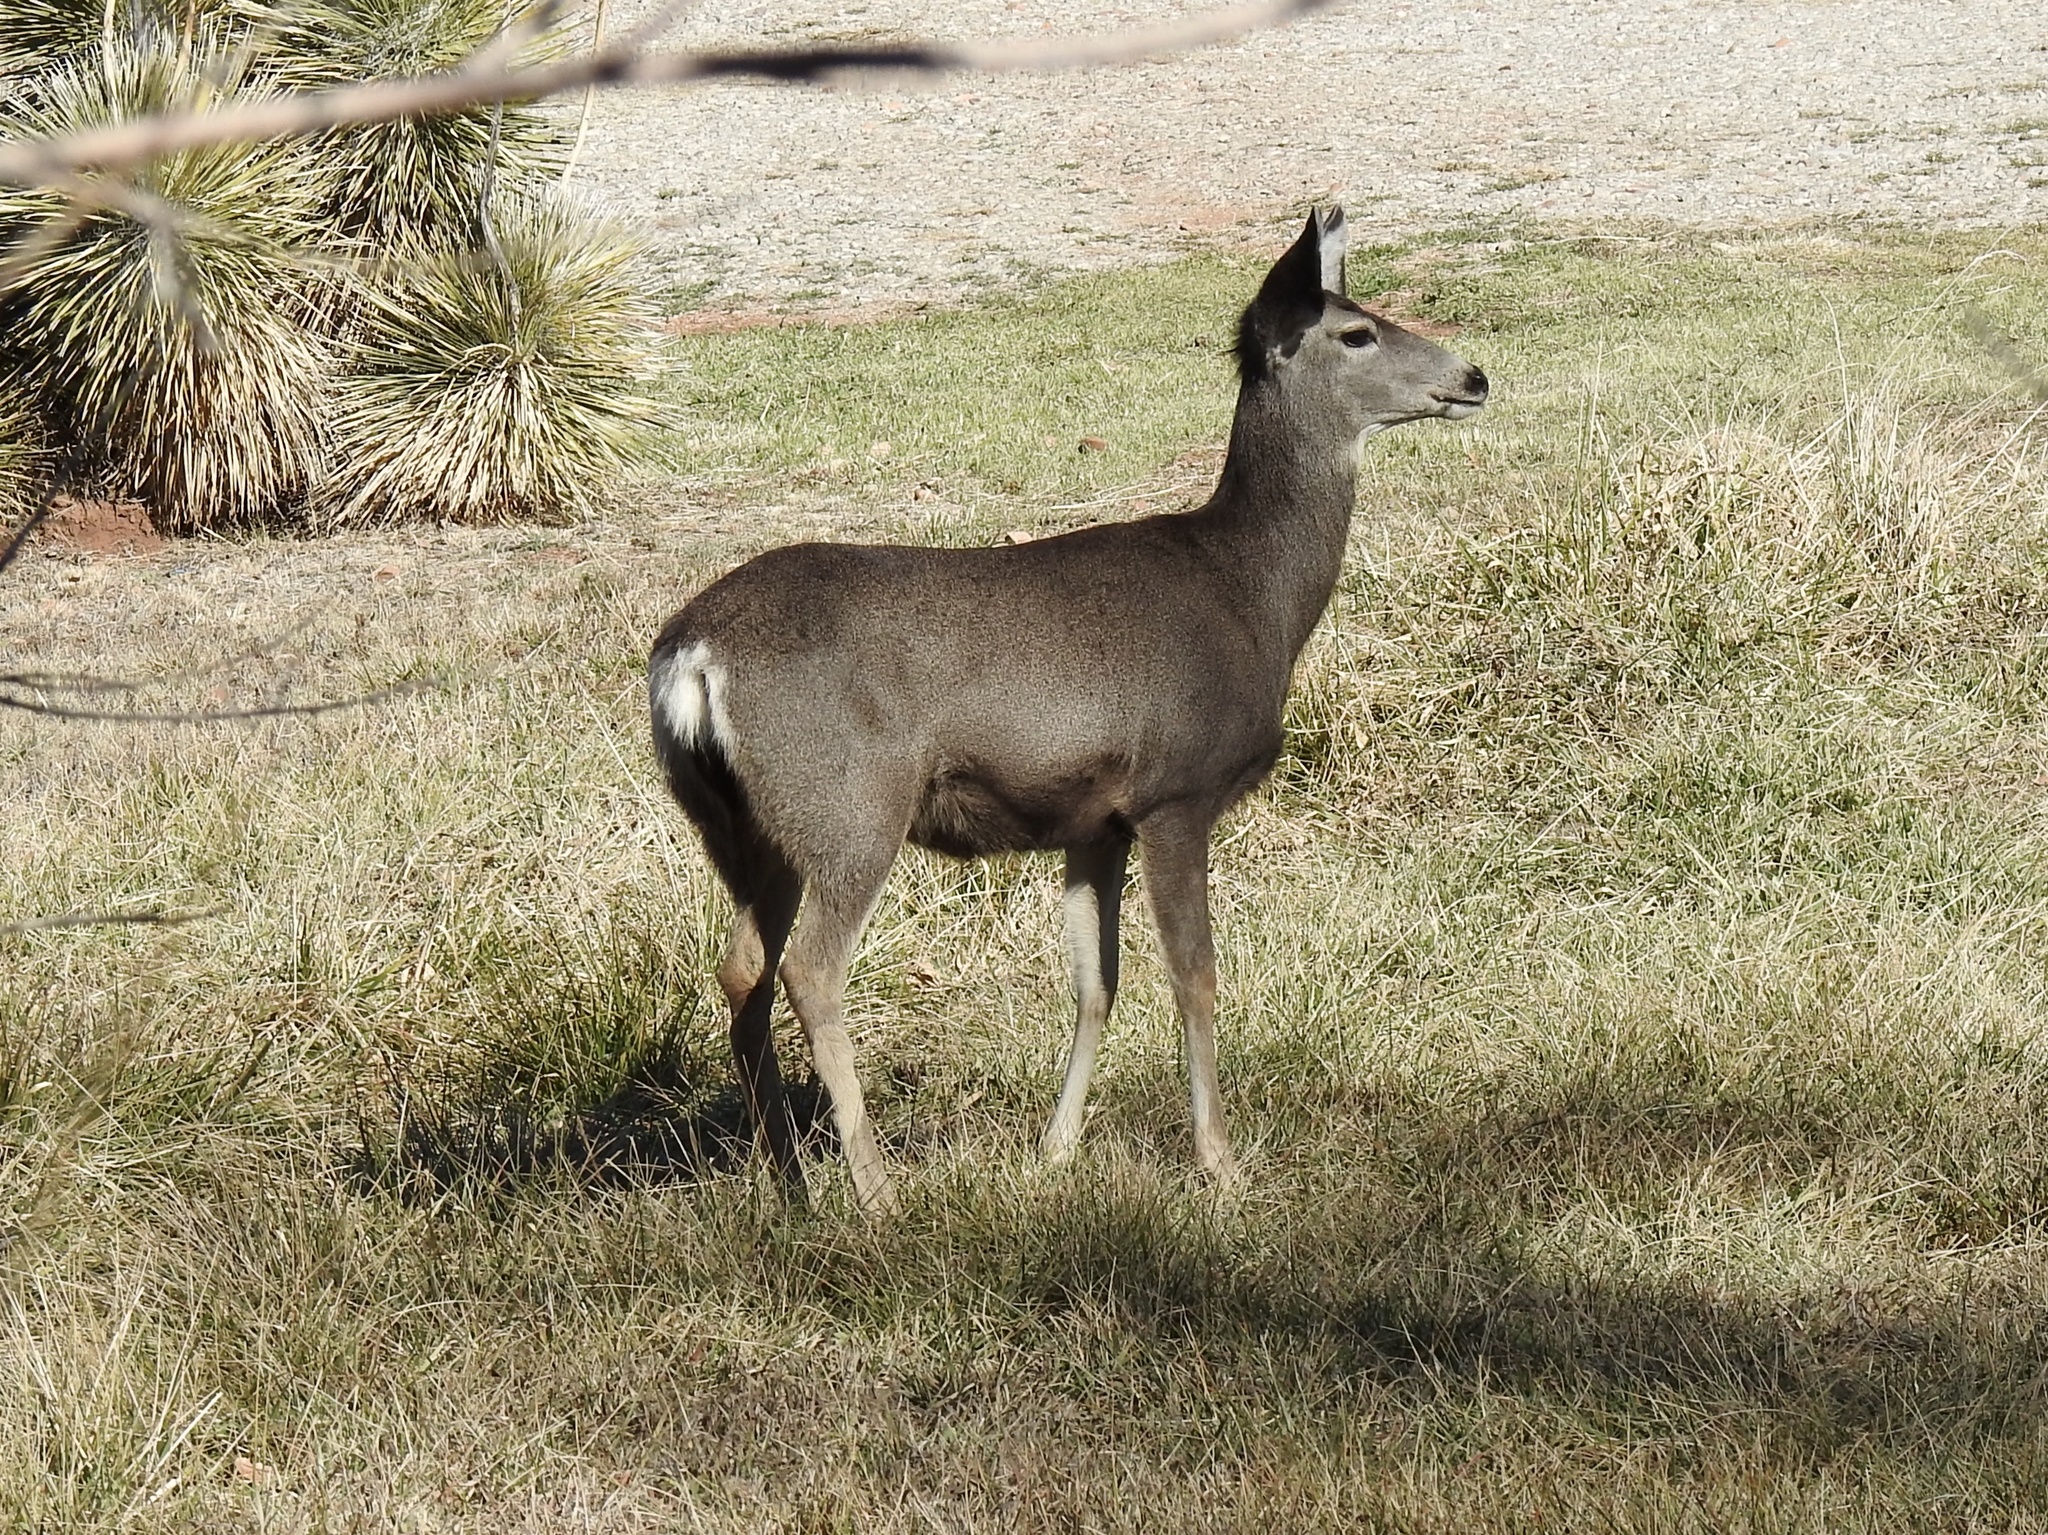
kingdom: Animalia
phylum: Chordata
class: Mammalia
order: Artiodactyla
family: Cervidae
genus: Odocoileus
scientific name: Odocoileus hemionus
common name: Mule deer
